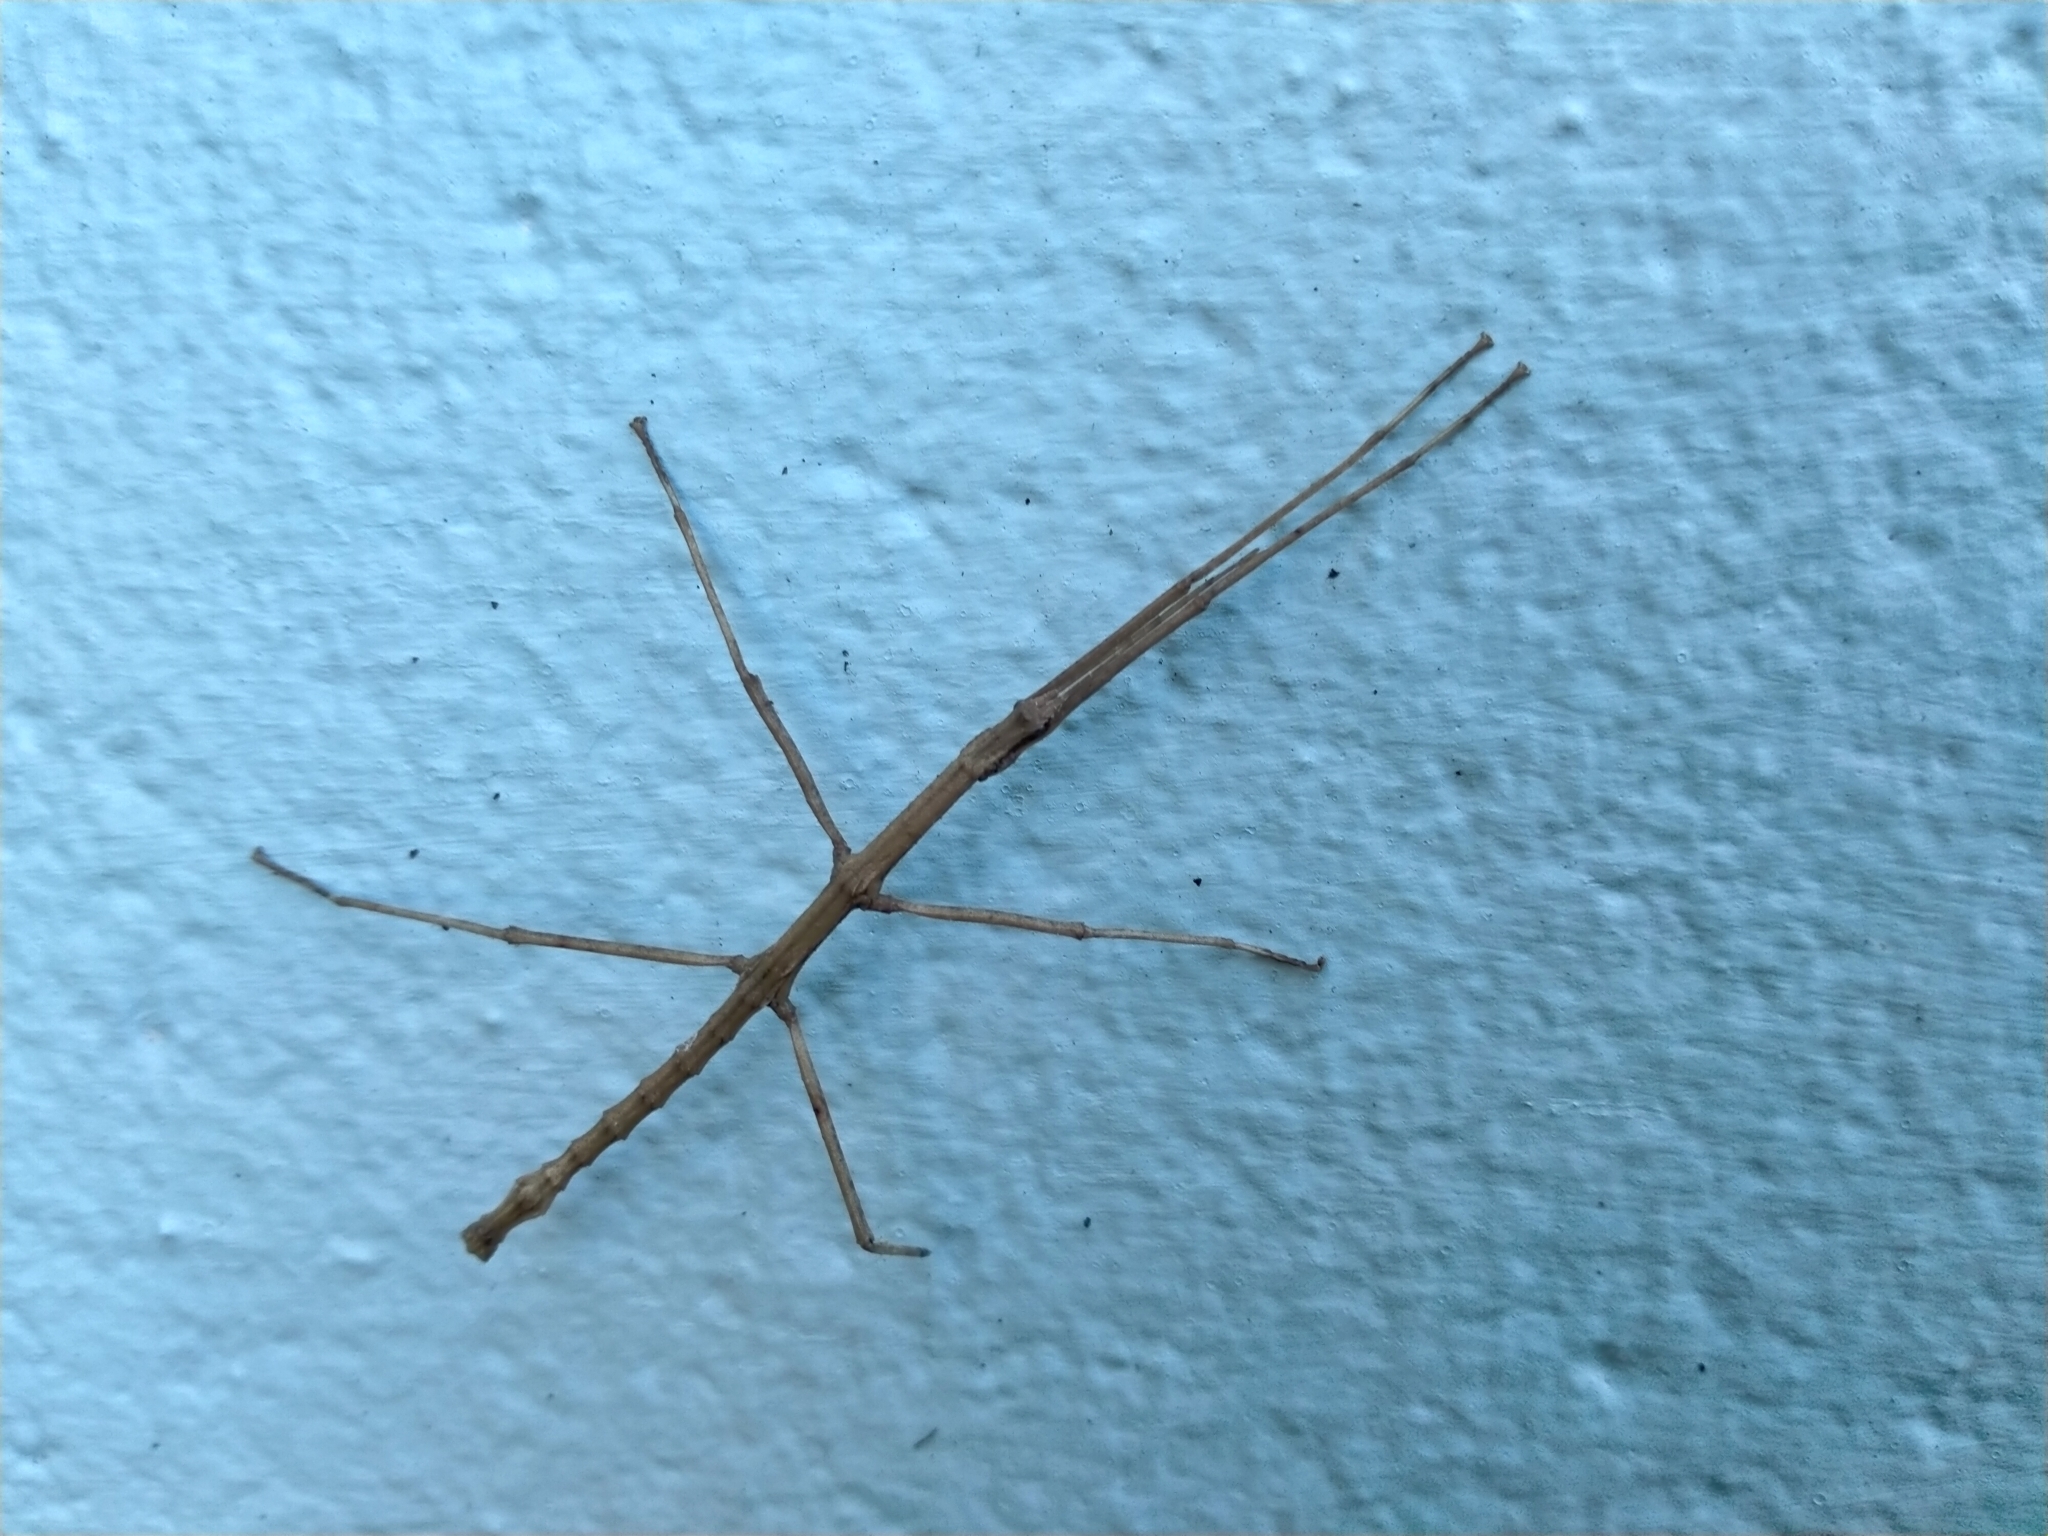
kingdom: Animalia
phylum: Arthropoda
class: Insecta
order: Phasmida
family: Phasmatidae
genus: Niveaphasma
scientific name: Niveaphasma annulatum
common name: Hutton's stick insect
